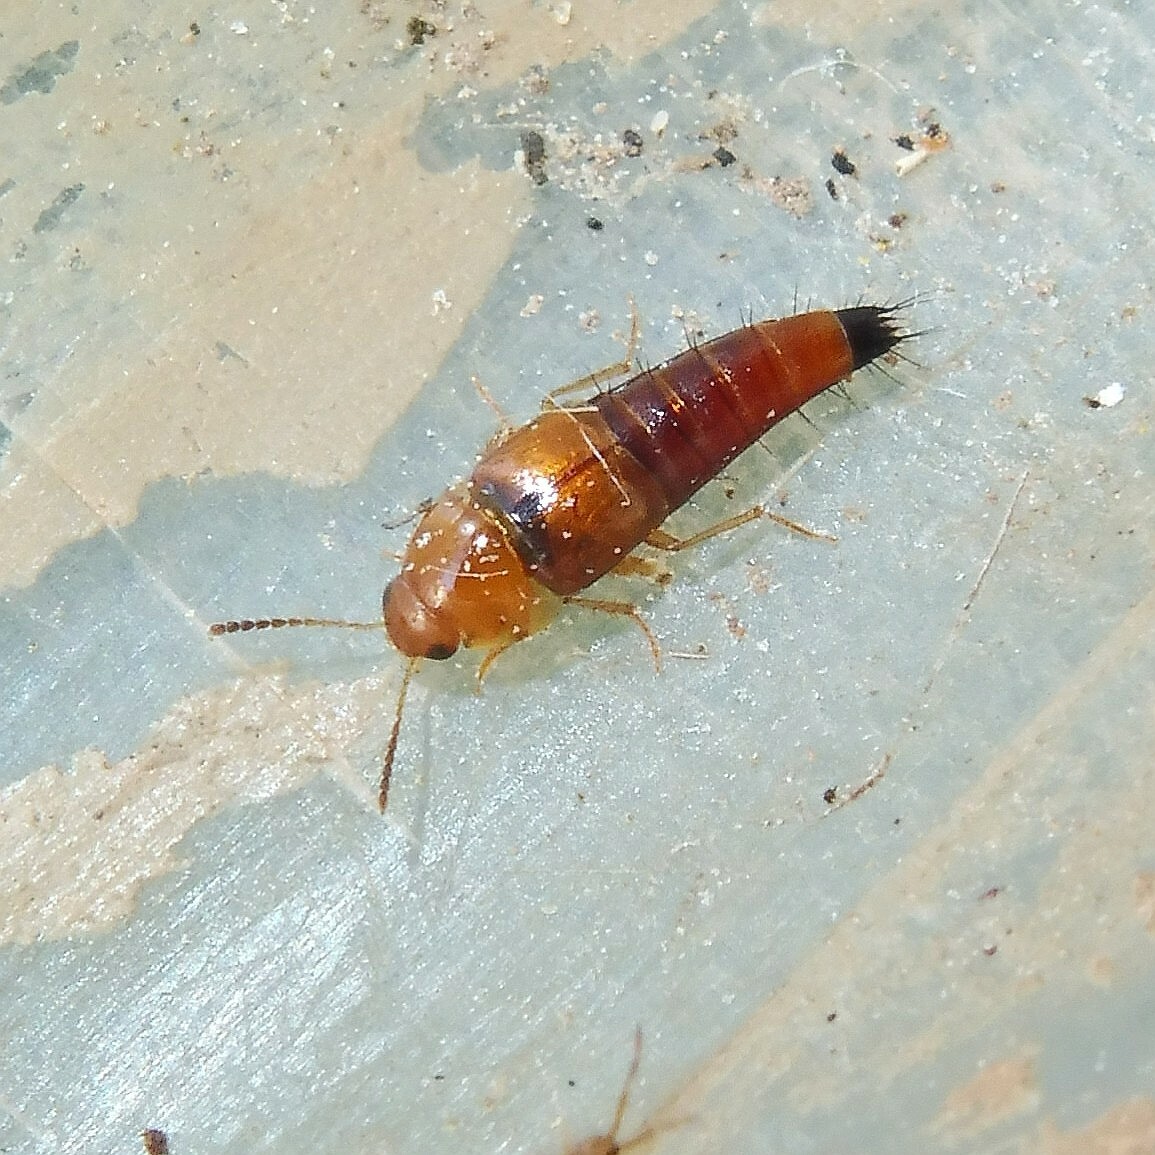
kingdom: Animalia
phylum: Arthropoda
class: Insecta
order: Coleoptera
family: Staphylinidae
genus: Tachyporus
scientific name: Tachyporus formosus
